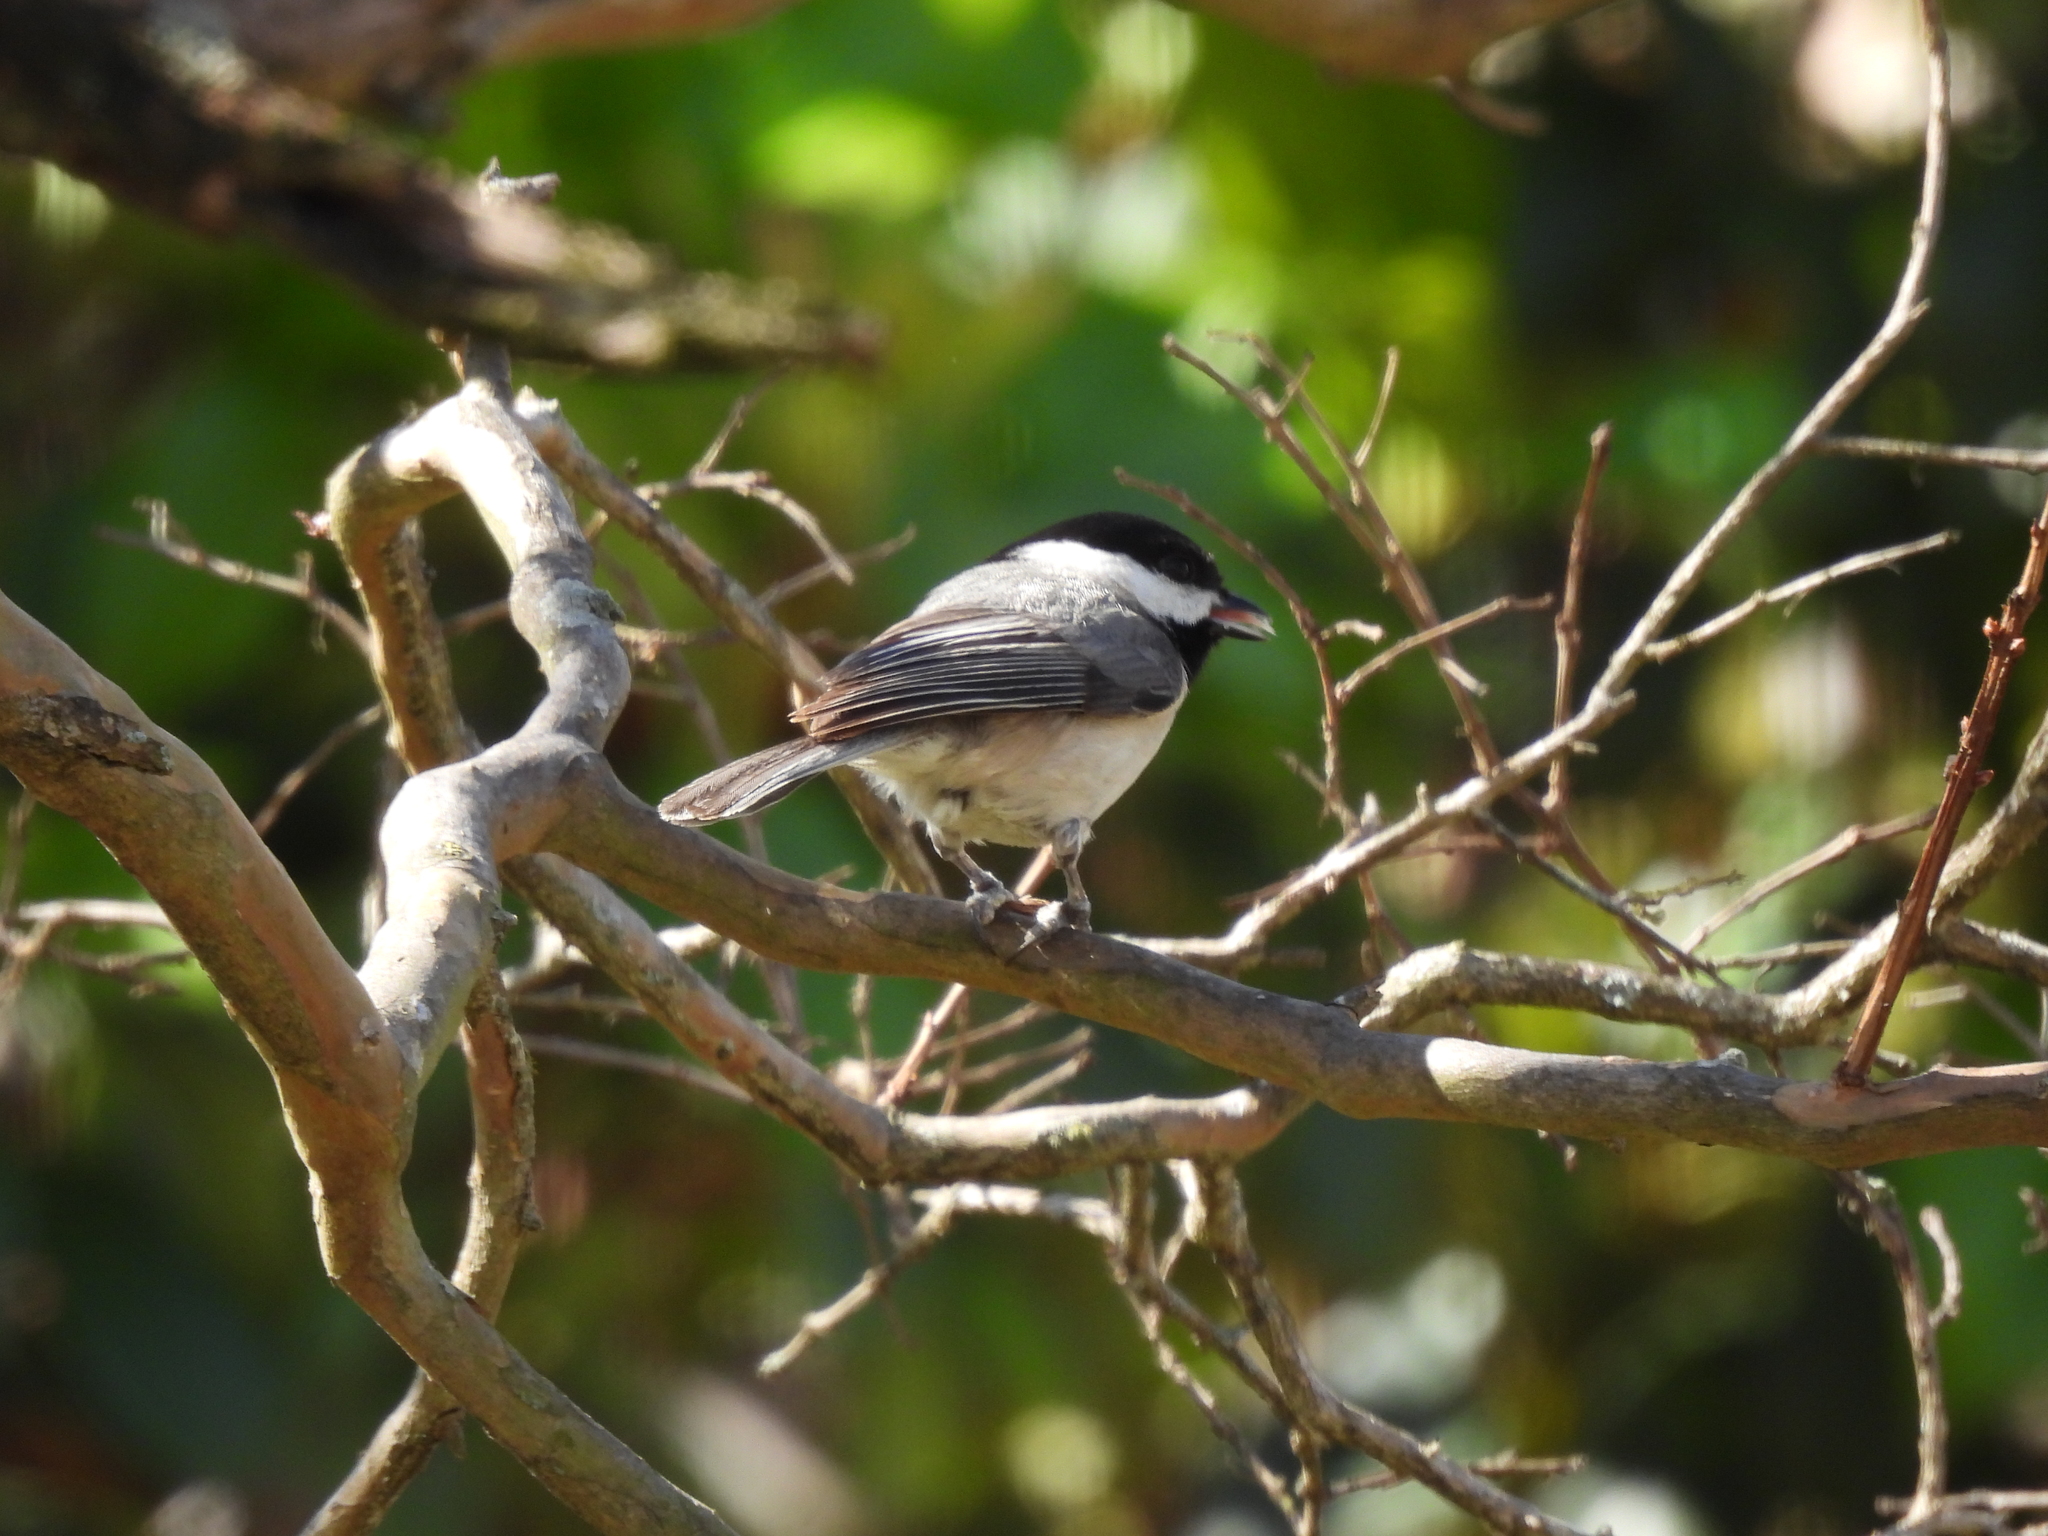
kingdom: Animalia
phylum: Chordata
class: Aves
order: Passeriformes
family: Paridae
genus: Poecile
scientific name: Poecile carolinensis
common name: Carolina chickadee
